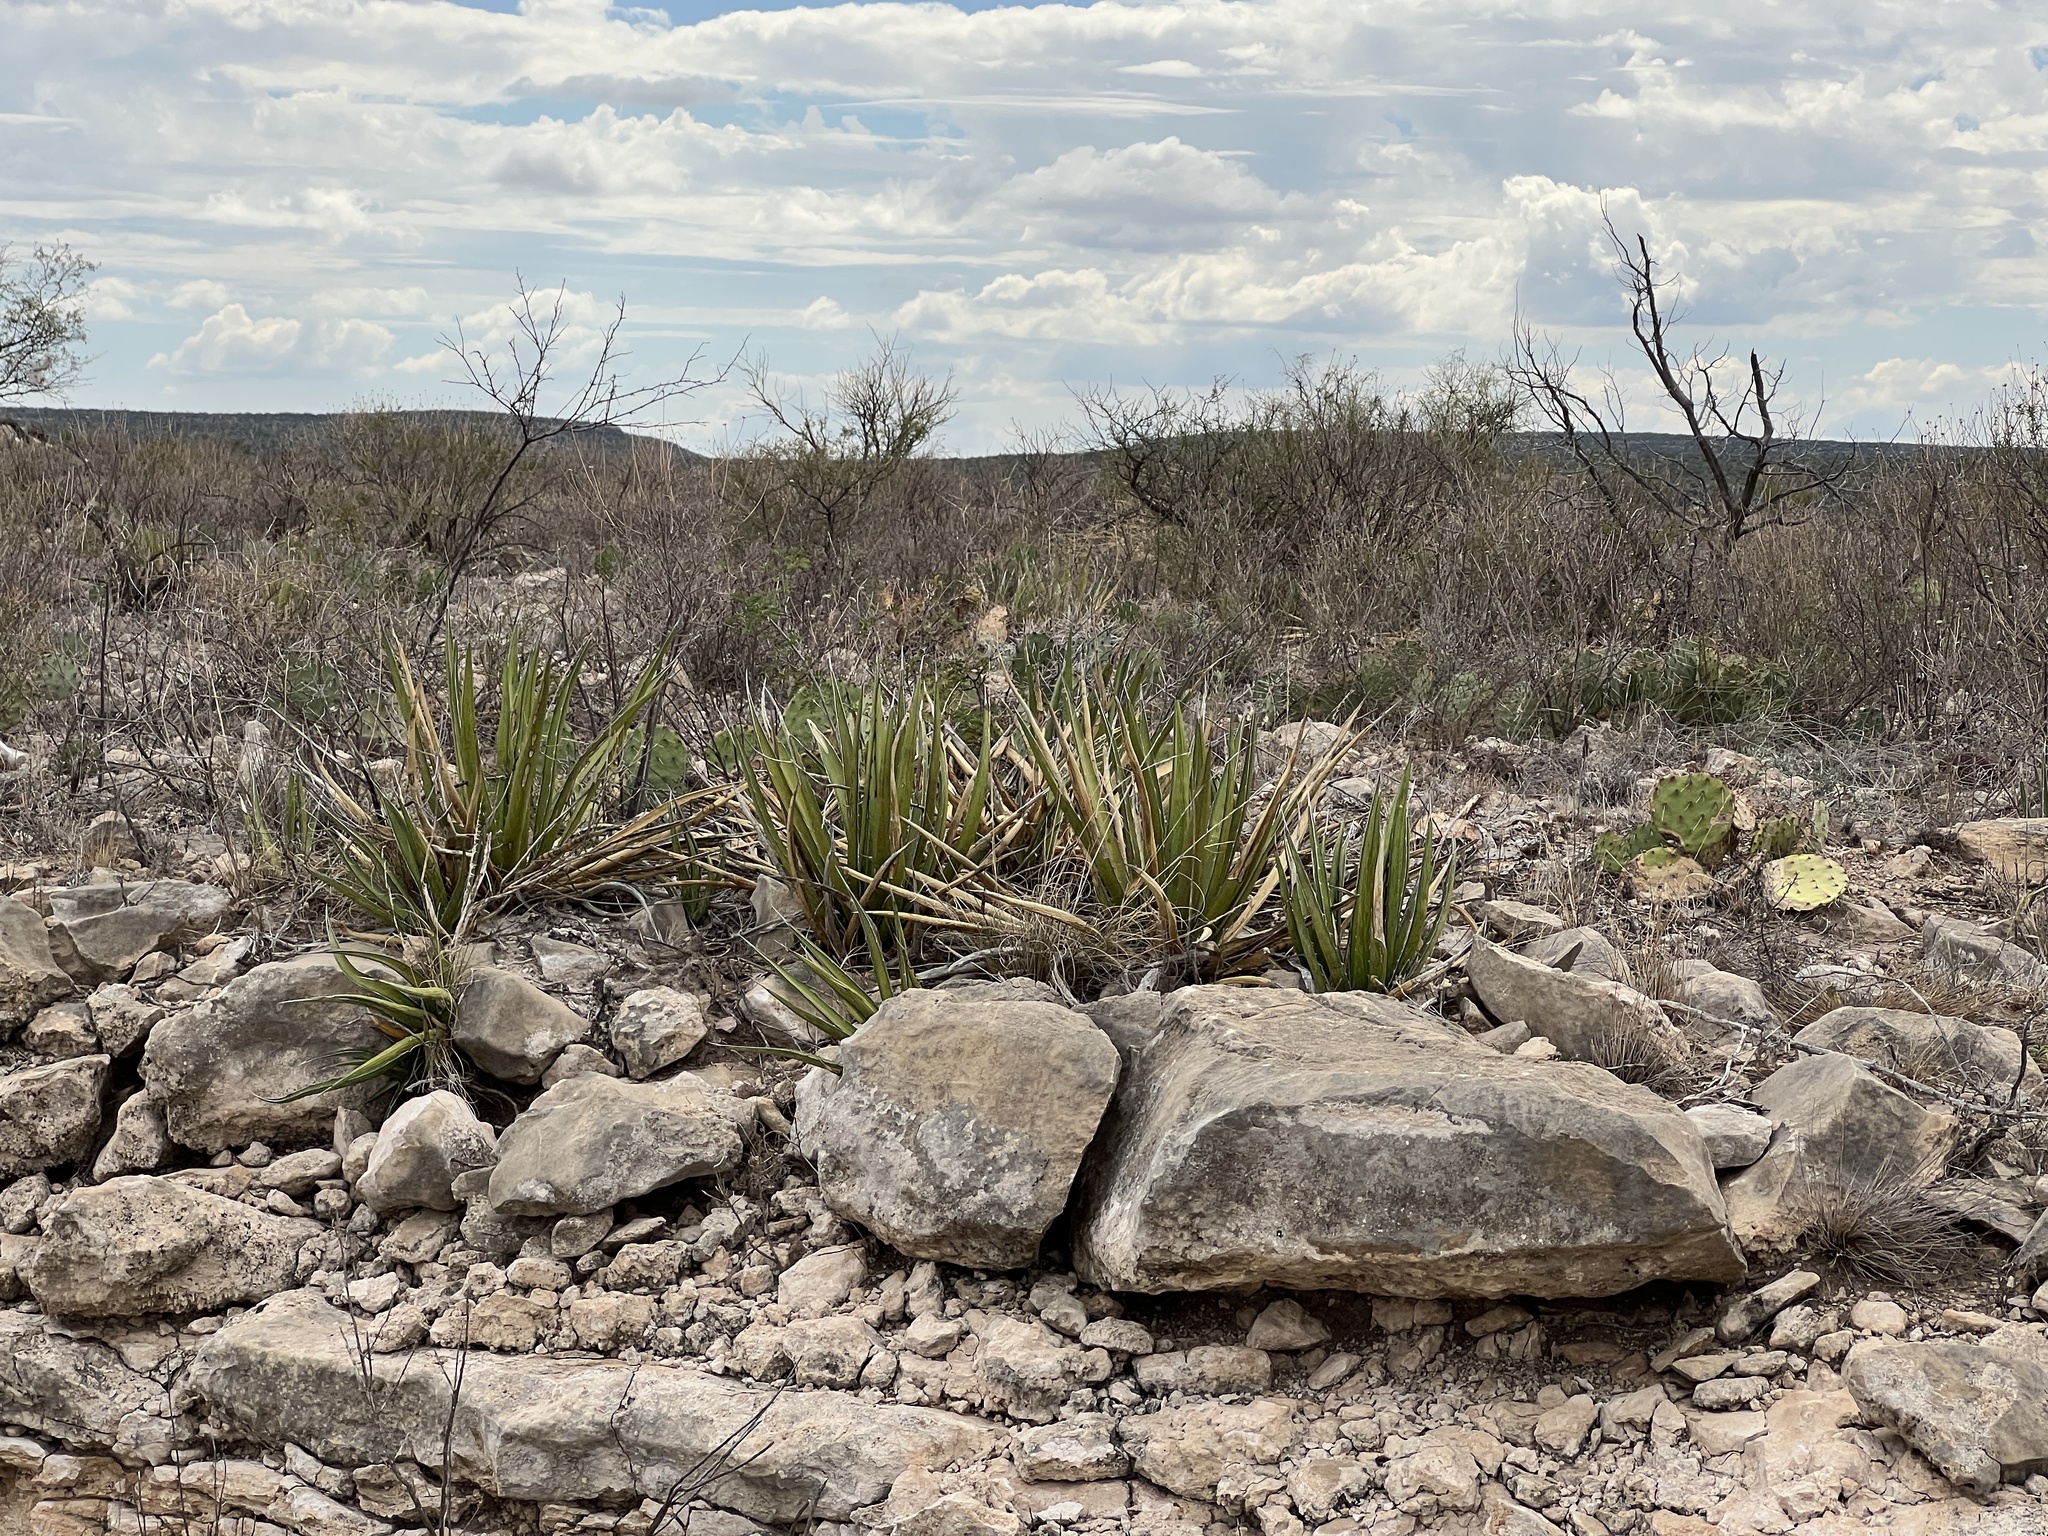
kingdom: Plantae
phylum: Tracheophyta
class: Liliopsida
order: Asparagales
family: Asparagaceae
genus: Agave
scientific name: Agave lechuguilla
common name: Lecheguilla agave
